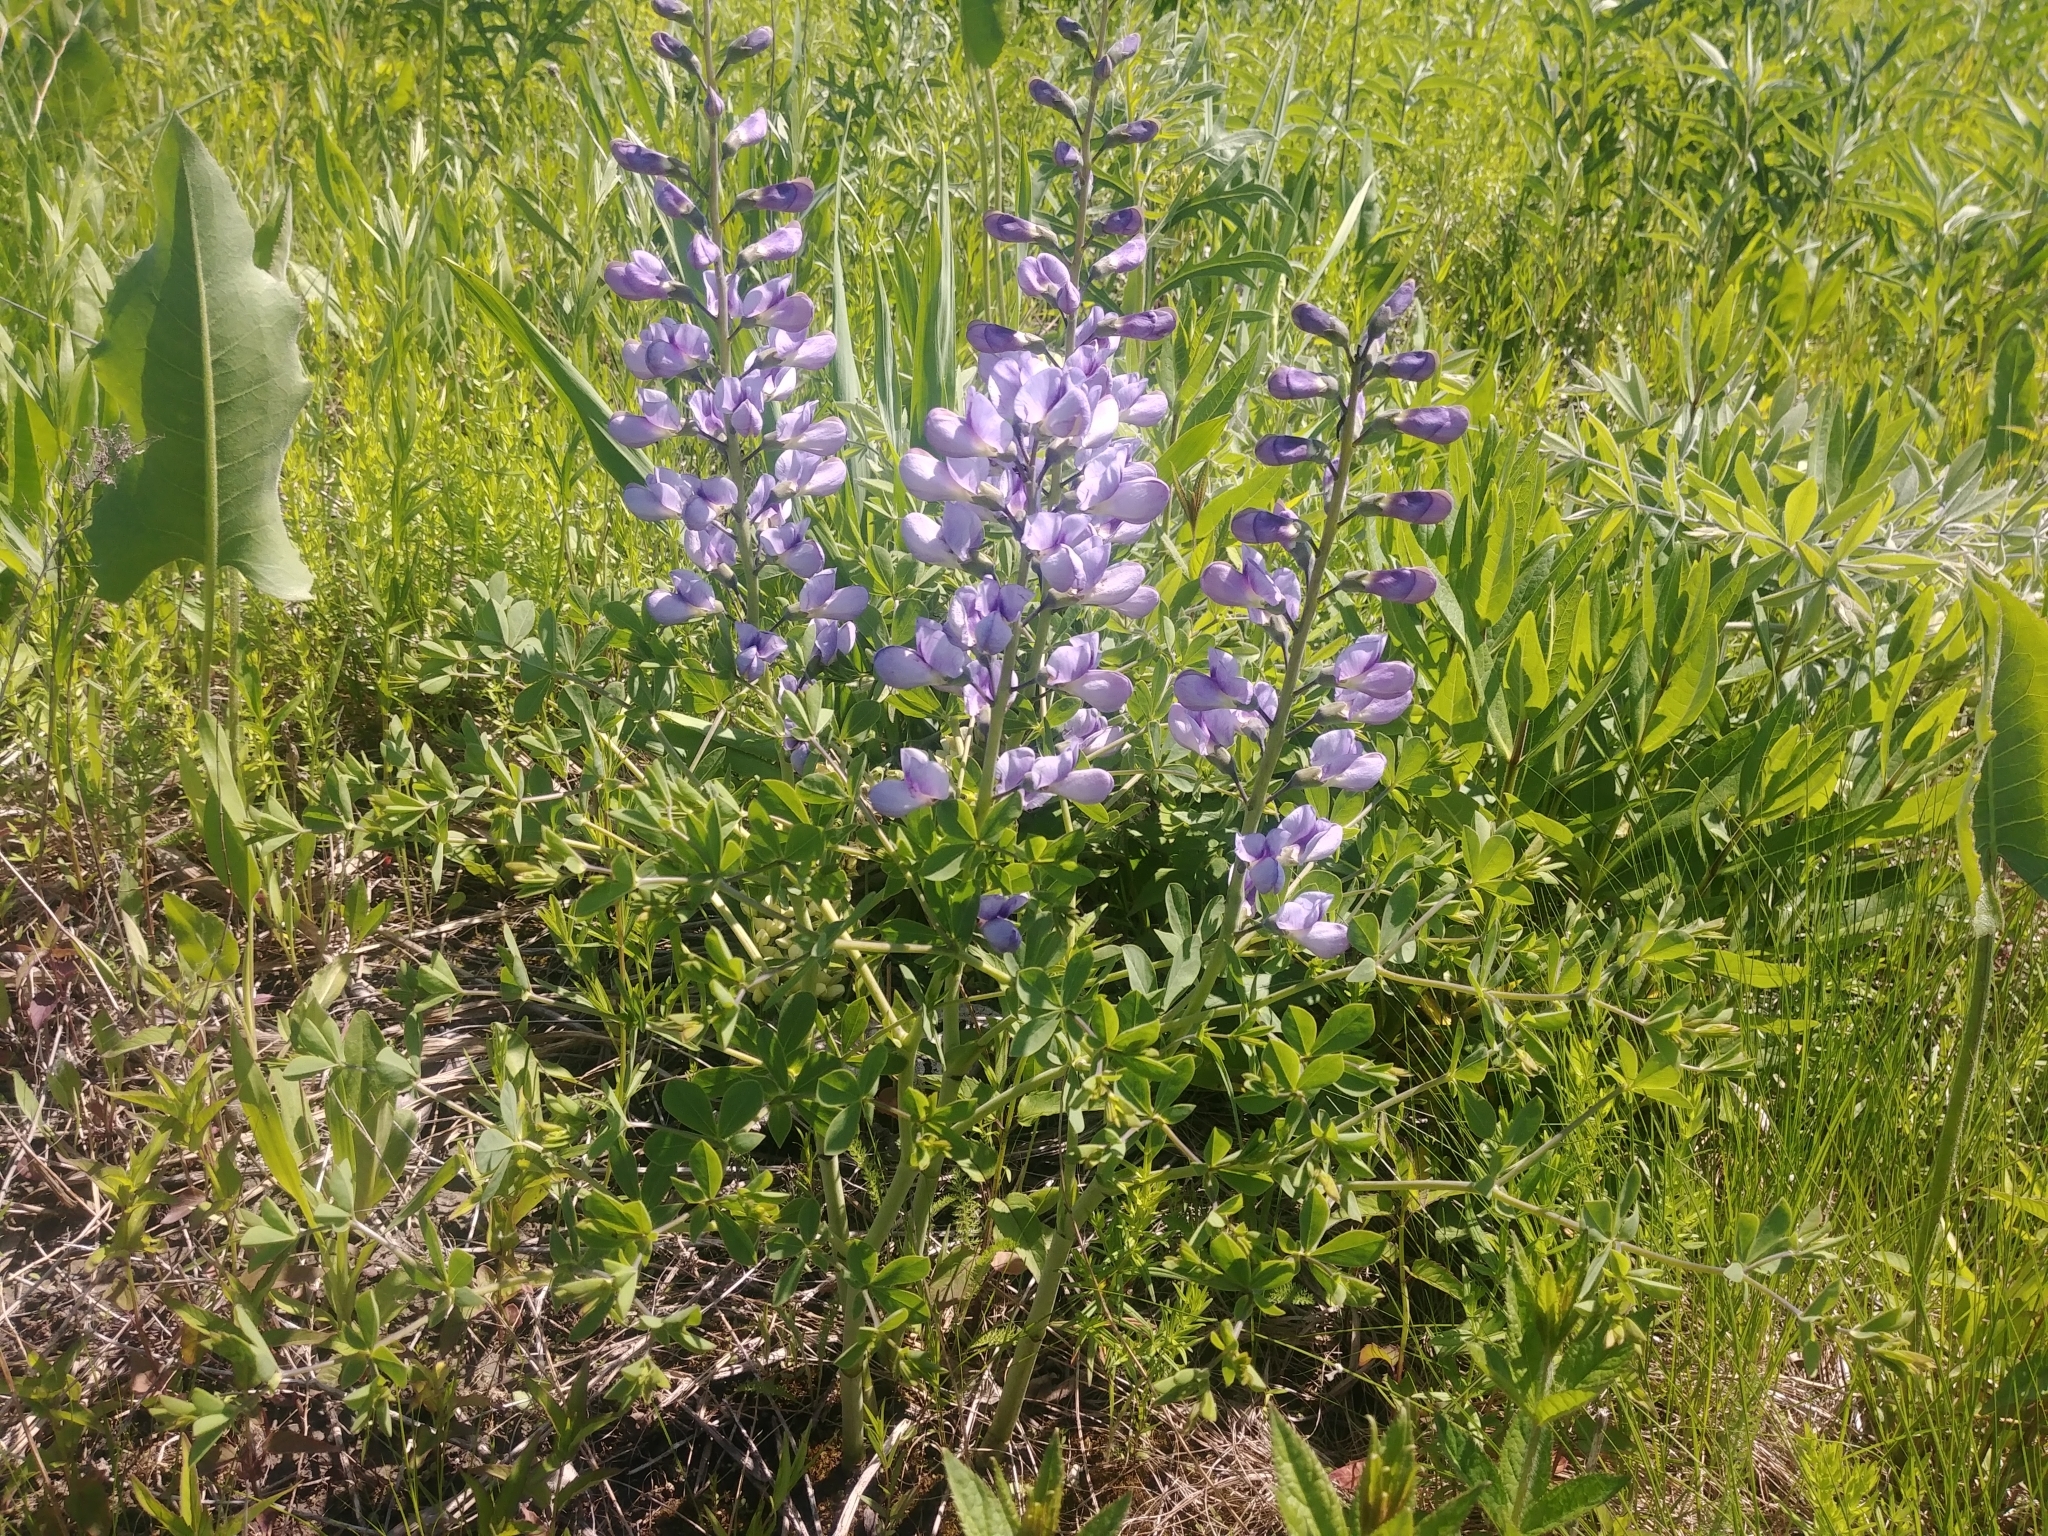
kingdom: Plantae
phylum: Tracheophyta
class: Magnoliopsida
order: Fabales
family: Fabaceae
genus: Baptisia
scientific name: Baptisia australis
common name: Blue false indigo
